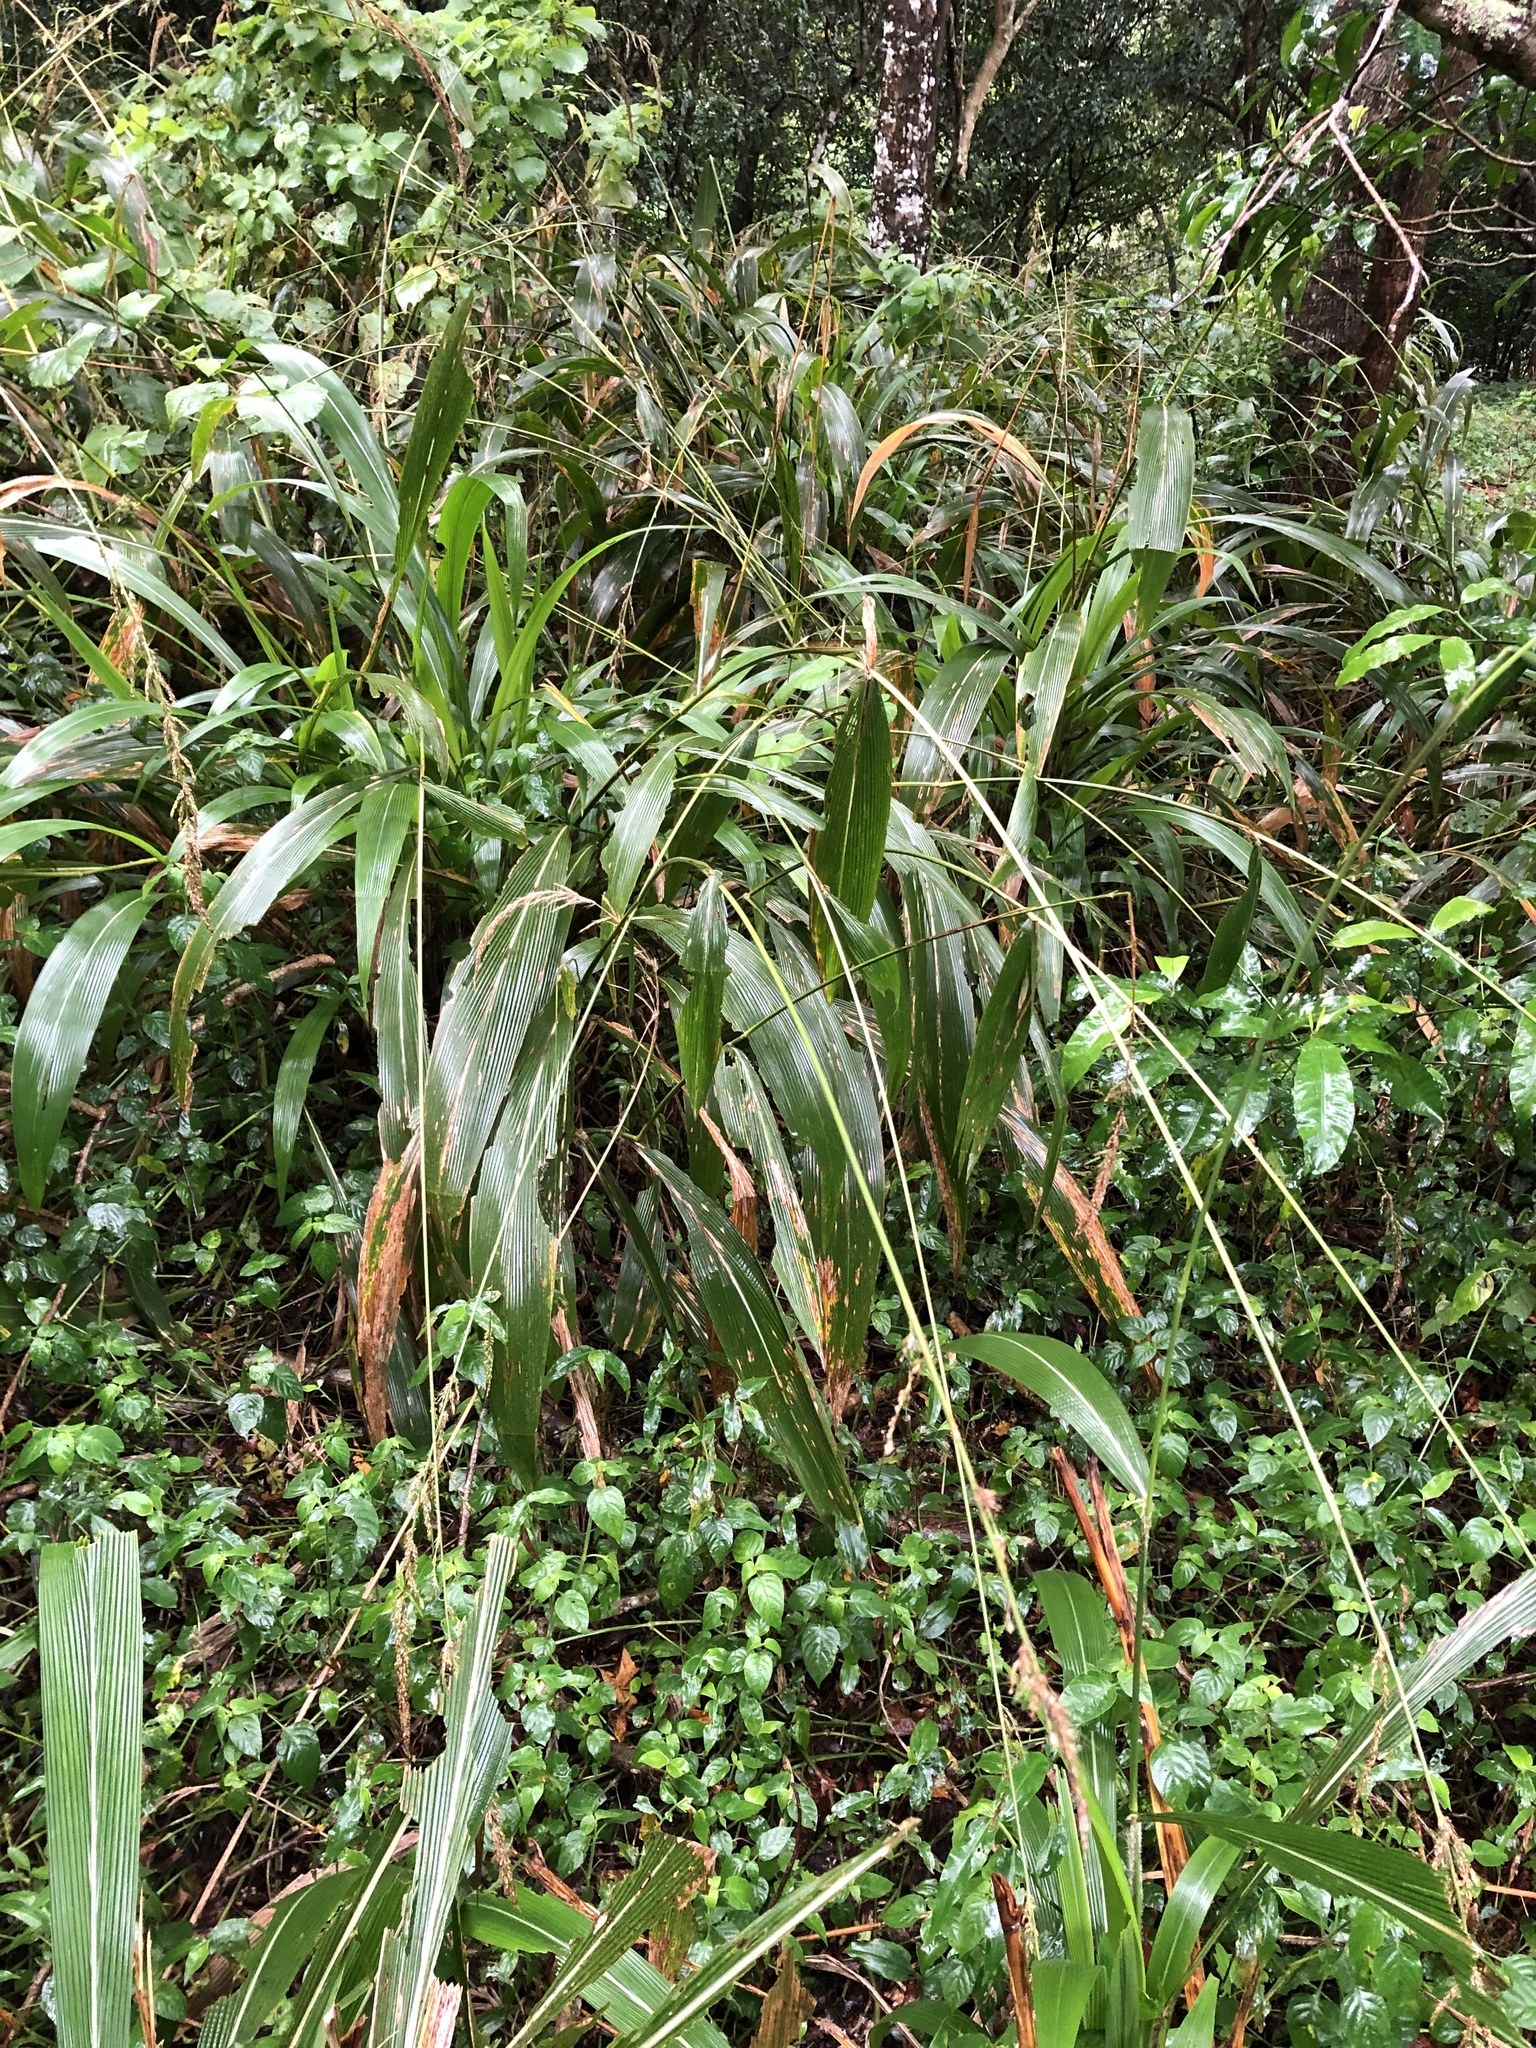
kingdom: Plantae
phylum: Tracheophyta
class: Liliopsida
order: Poales
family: Poaceae
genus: Setaria
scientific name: Setaria megaphylla
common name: Bigleaf bristlegrass
